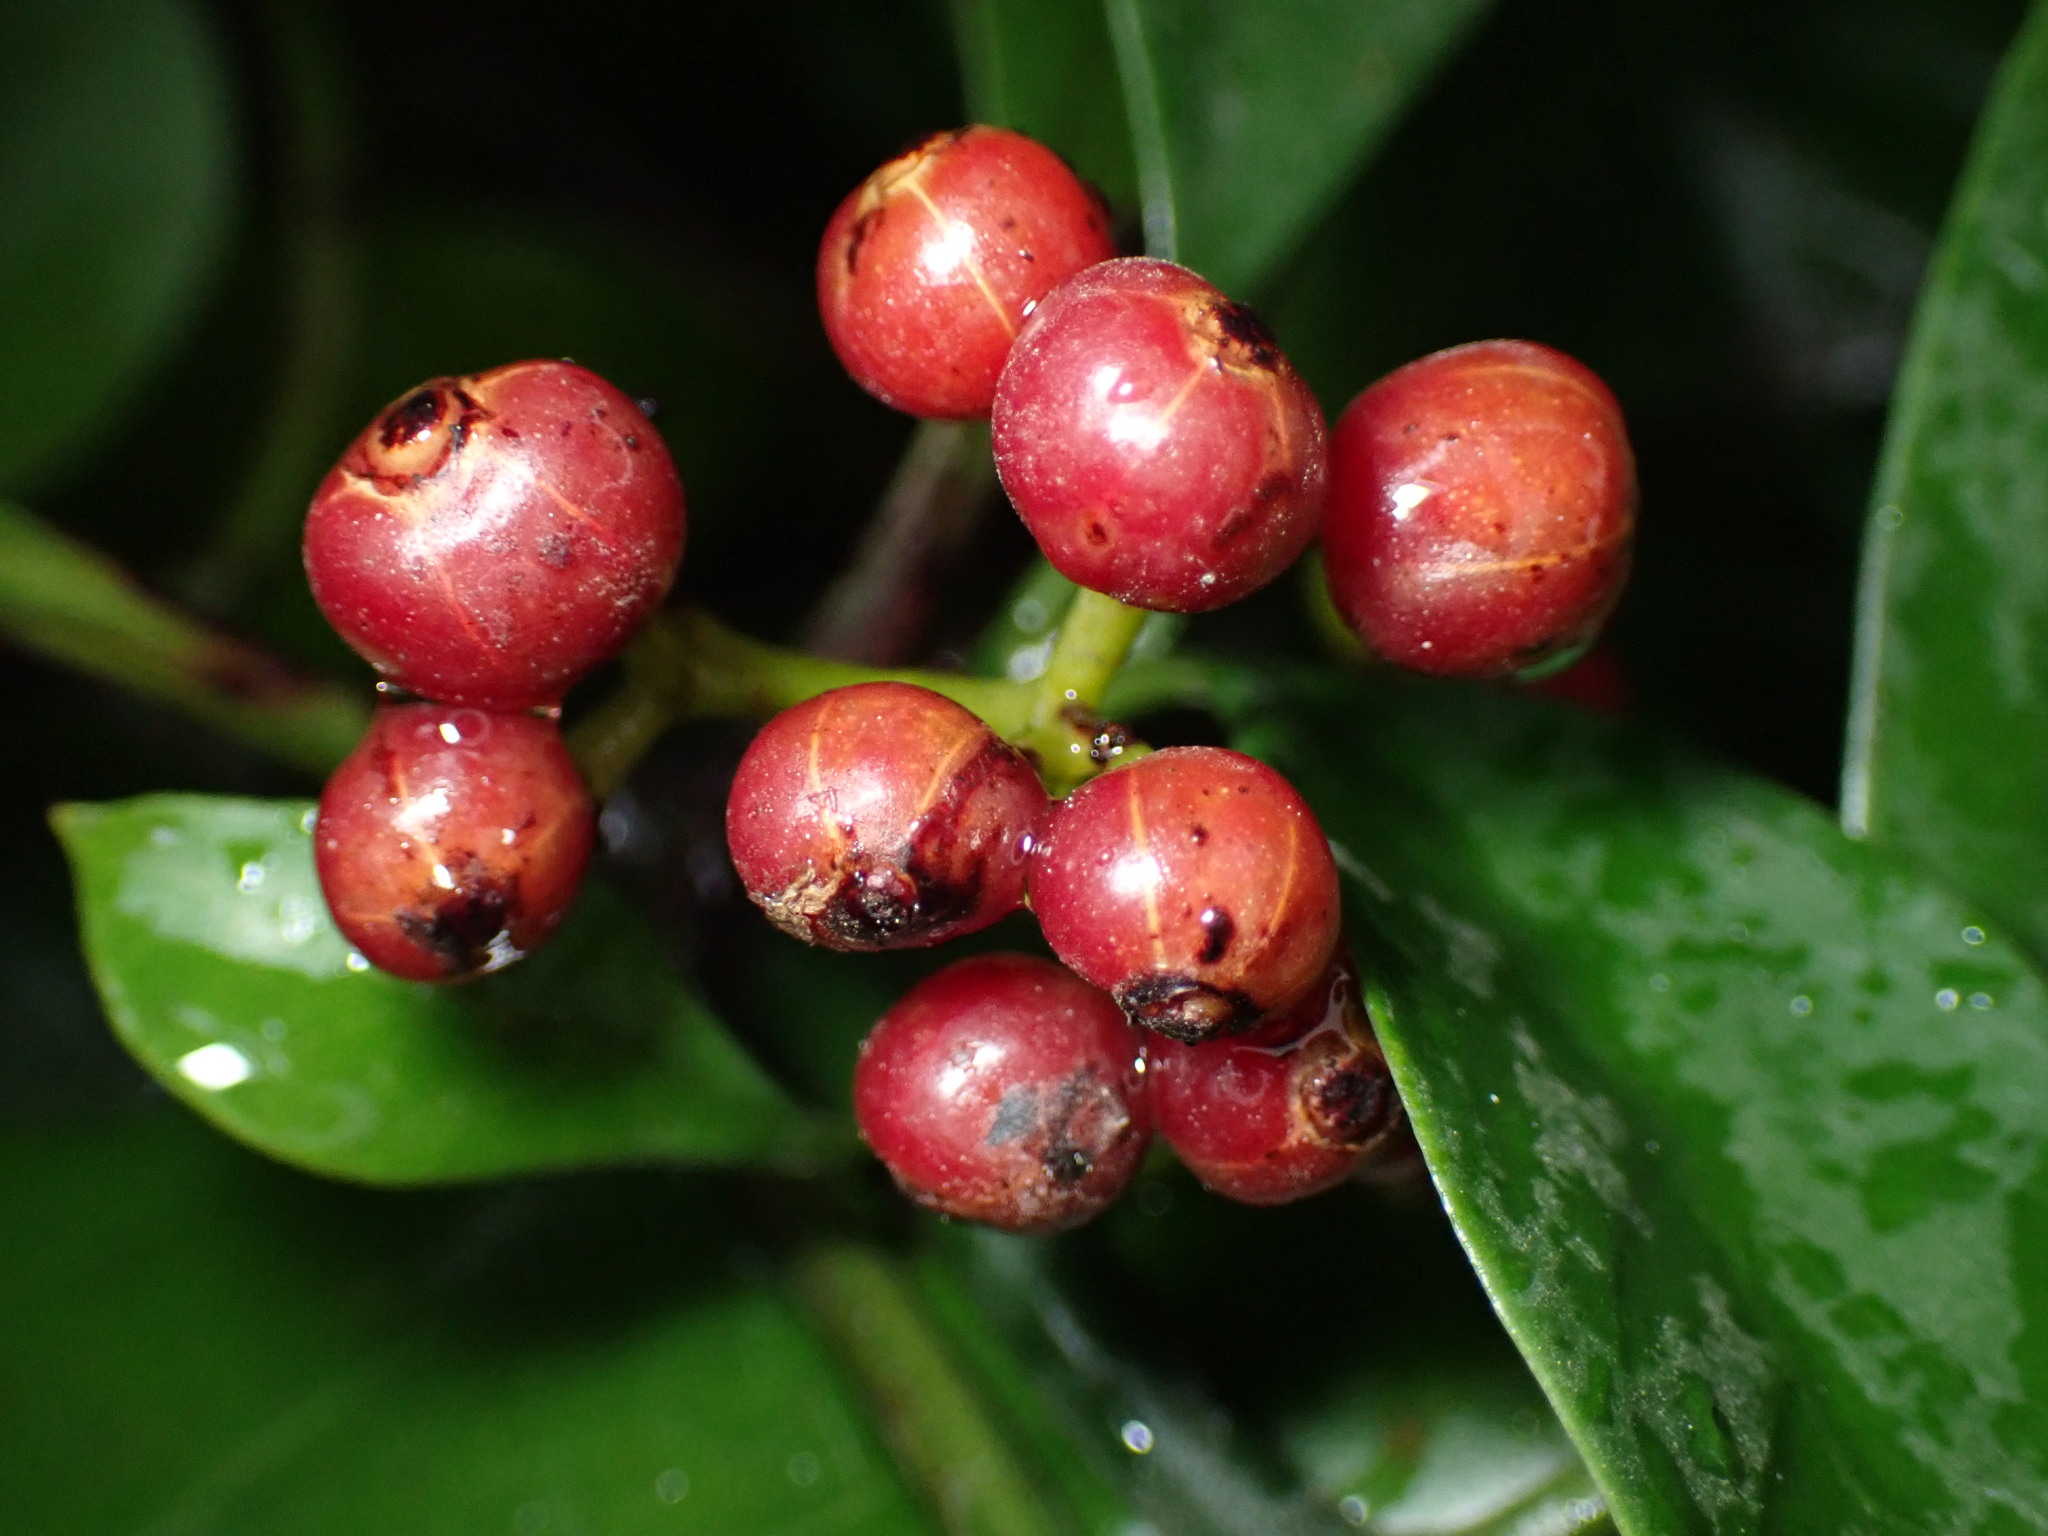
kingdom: Plantae
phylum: Tracheophyta
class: Magnoliopsida
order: Gentianales
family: Rubiaceae
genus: Psychotria
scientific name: Psychotria asiatica
